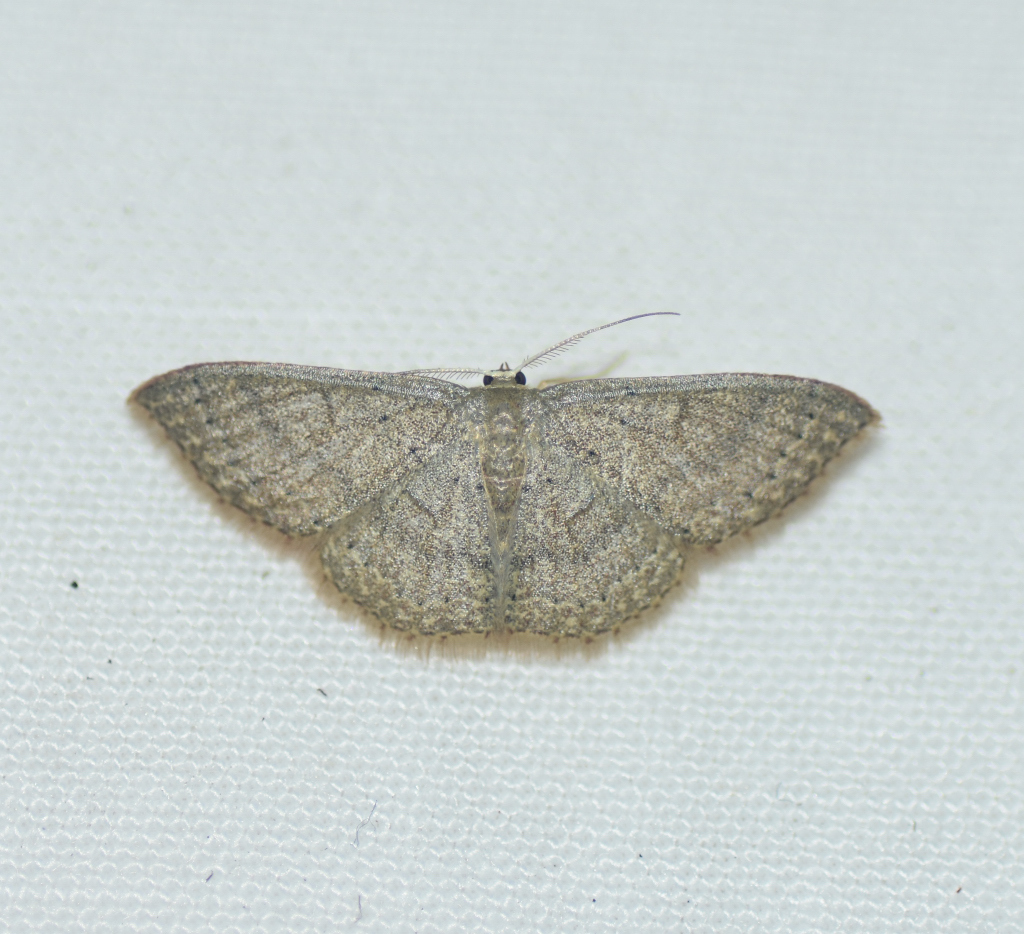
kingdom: Animalia
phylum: Arthropoda
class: Insecta
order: Lepidoptera
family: Geometridae
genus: Pleuroprucha
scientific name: Pleuroprucha insulsaria
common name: Common tan wave
